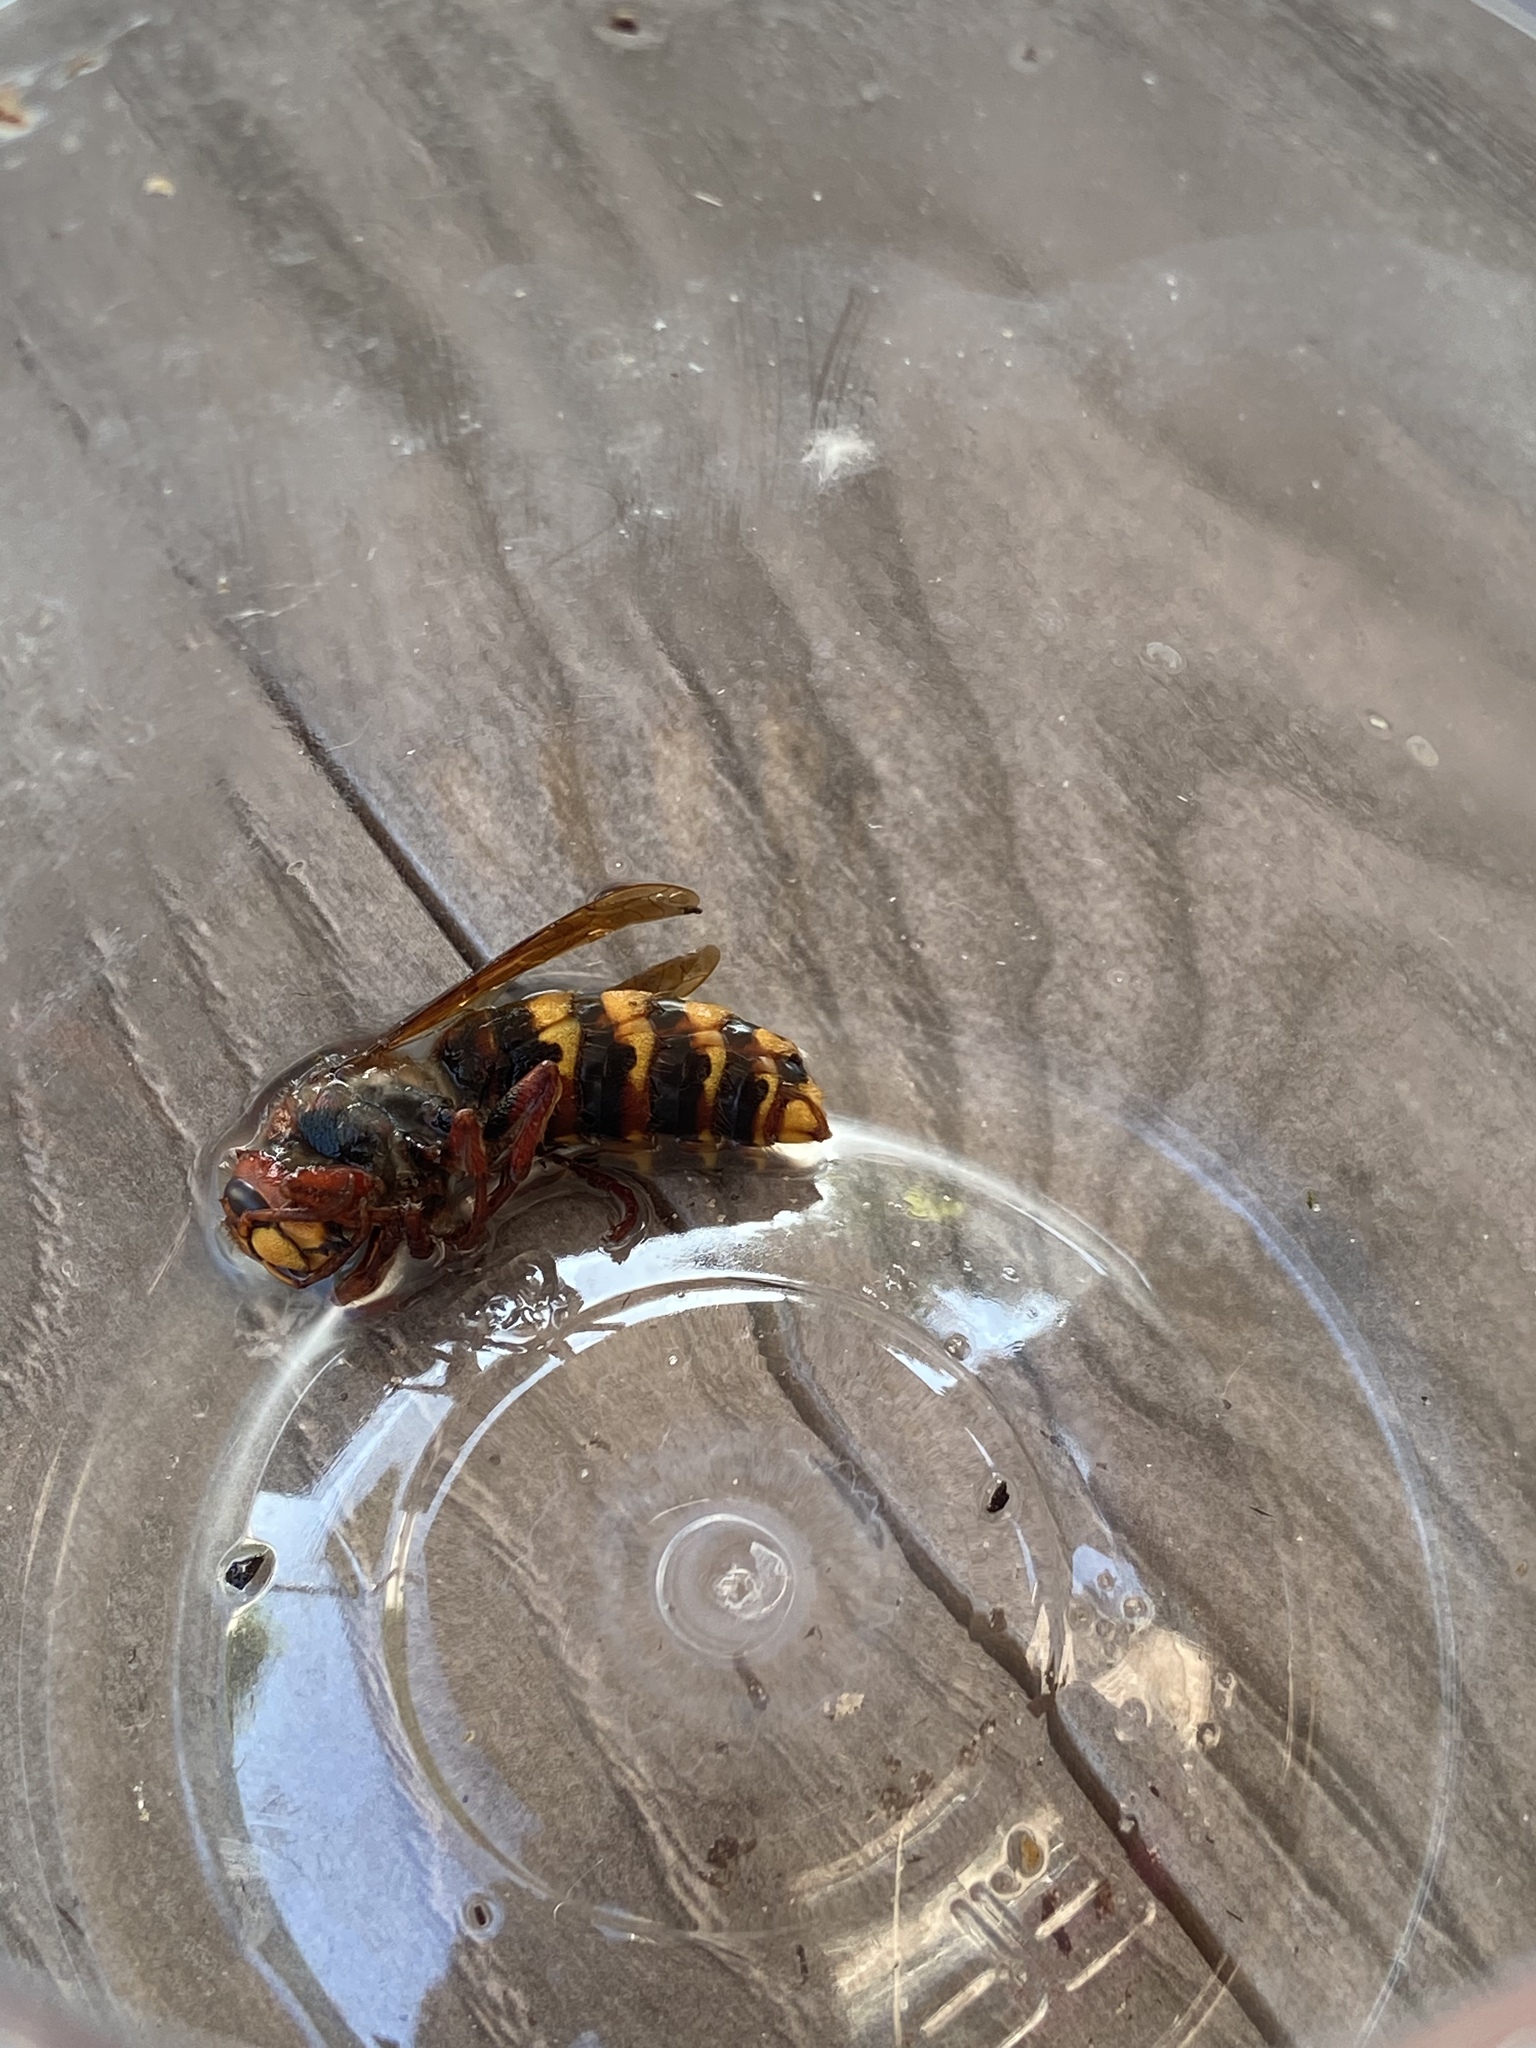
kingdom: Animalia
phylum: Arthropoda
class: Insecta
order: Hymenoptera
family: Vespidae
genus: Vespa
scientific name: Vespa crabro
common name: Hornet
